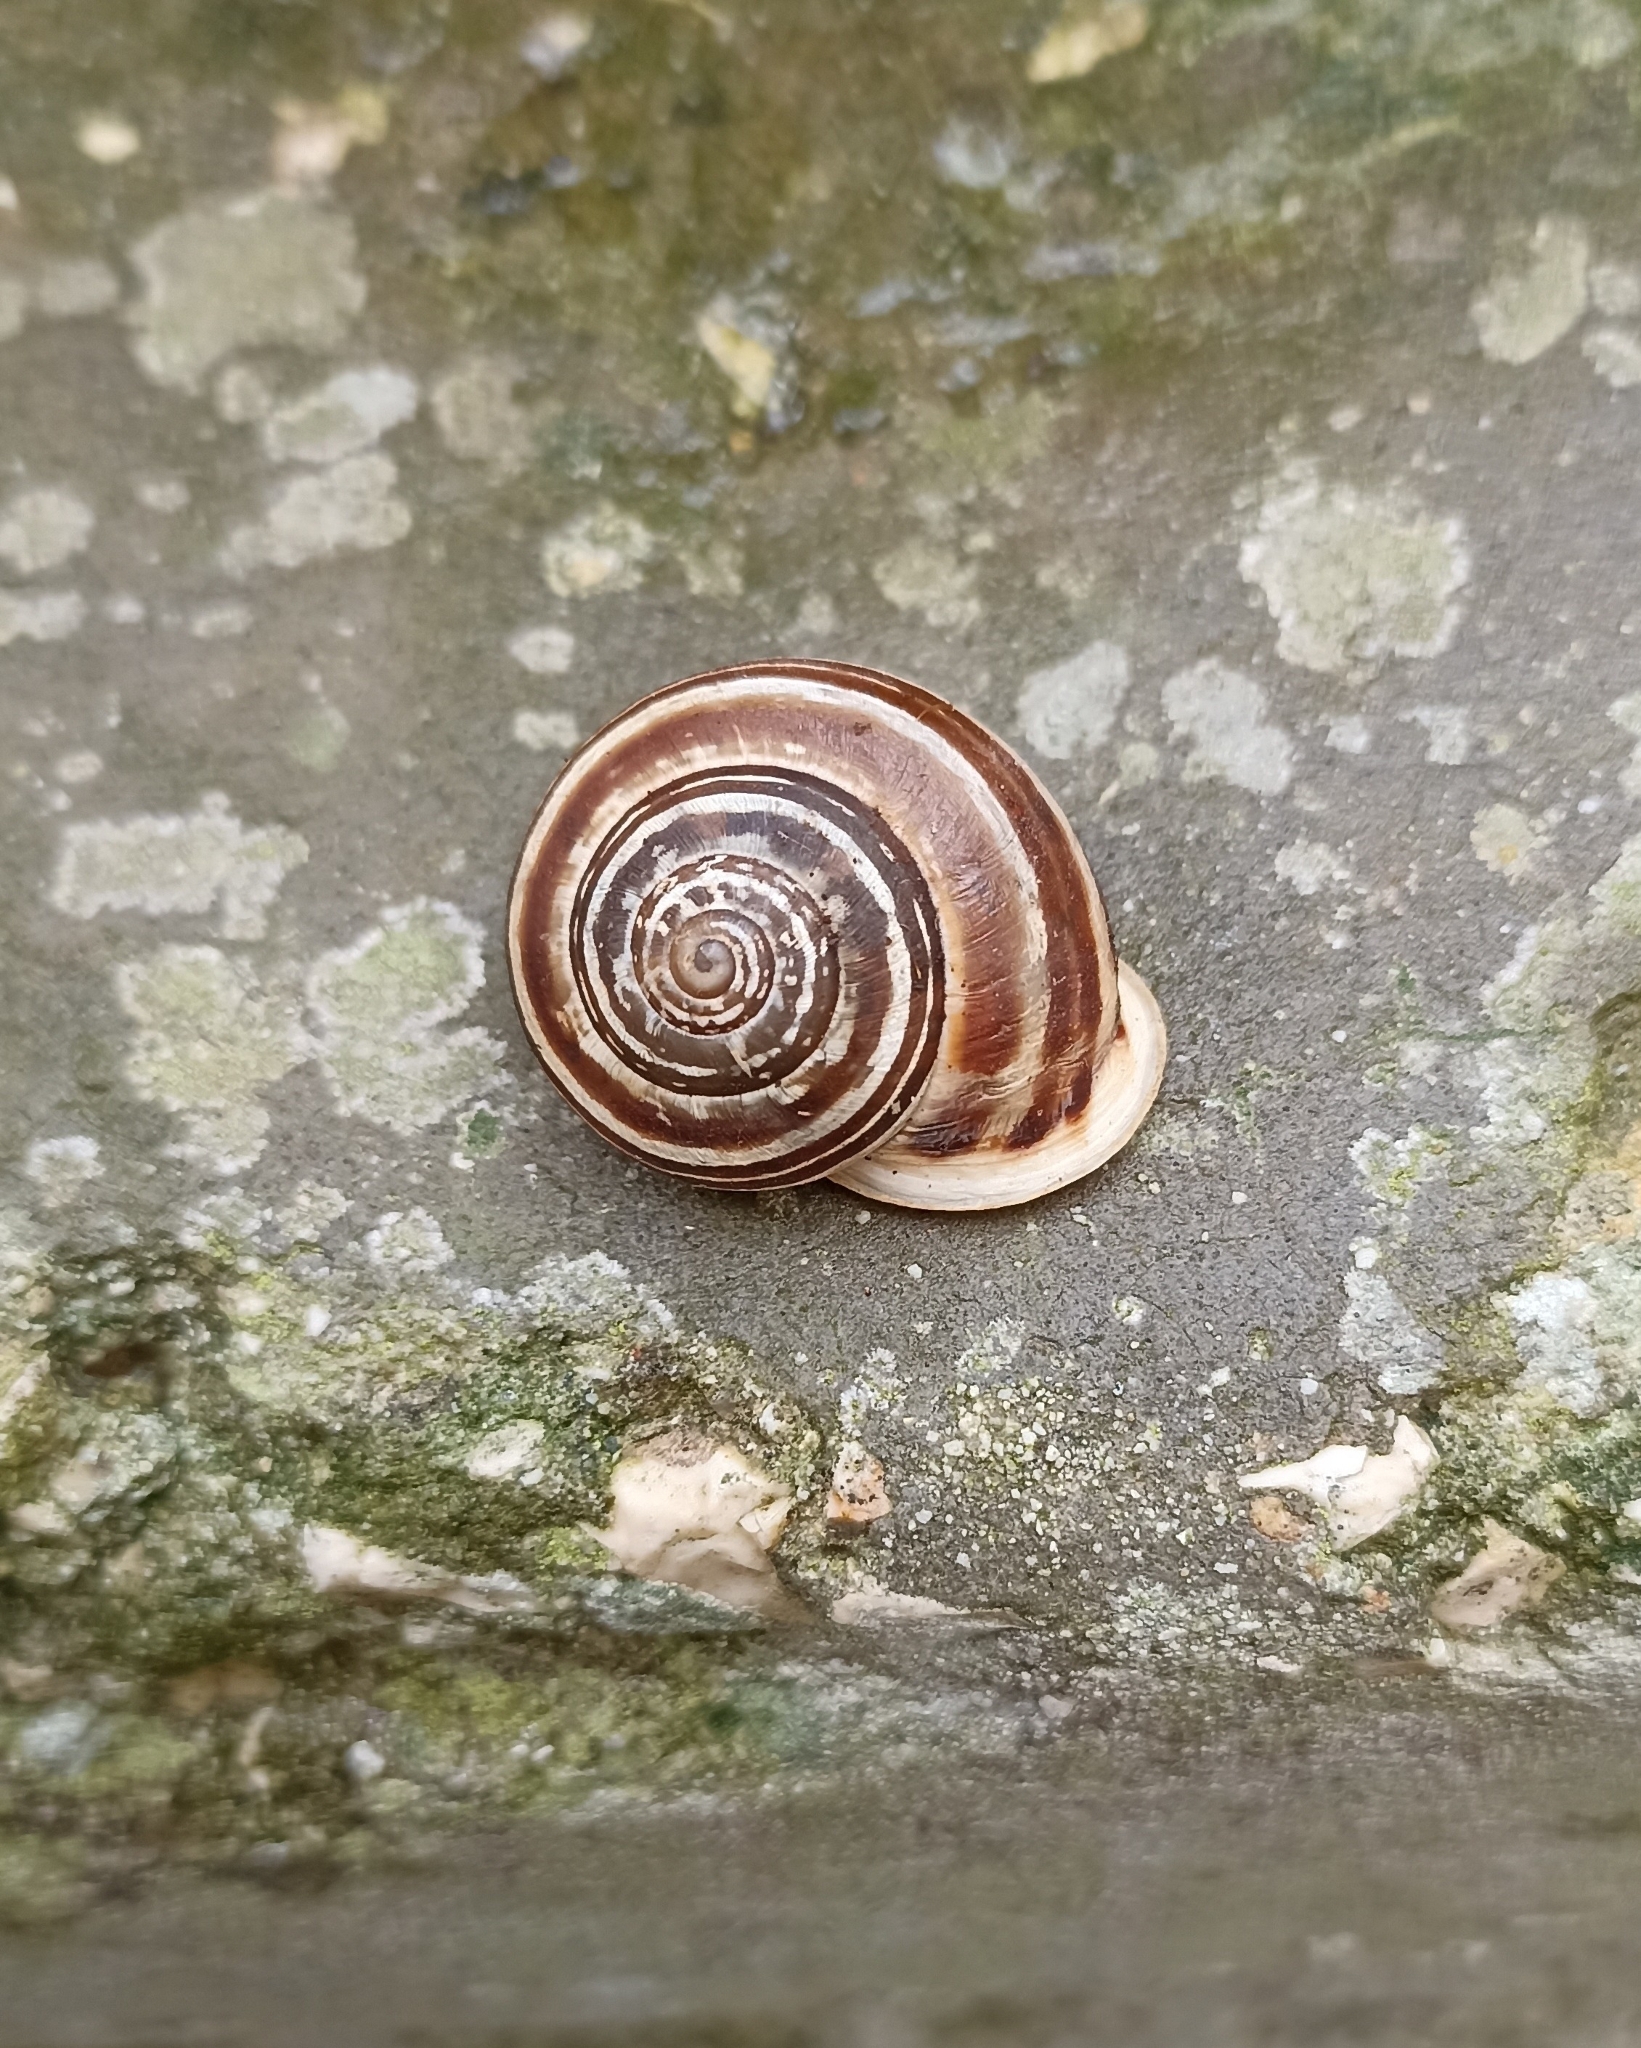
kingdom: Animalia
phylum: Mollusca
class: Gastropoda
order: Stylommatophora
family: Helicidae
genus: Eobania
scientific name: Eobania vermiculata
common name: Chocolateband snail
